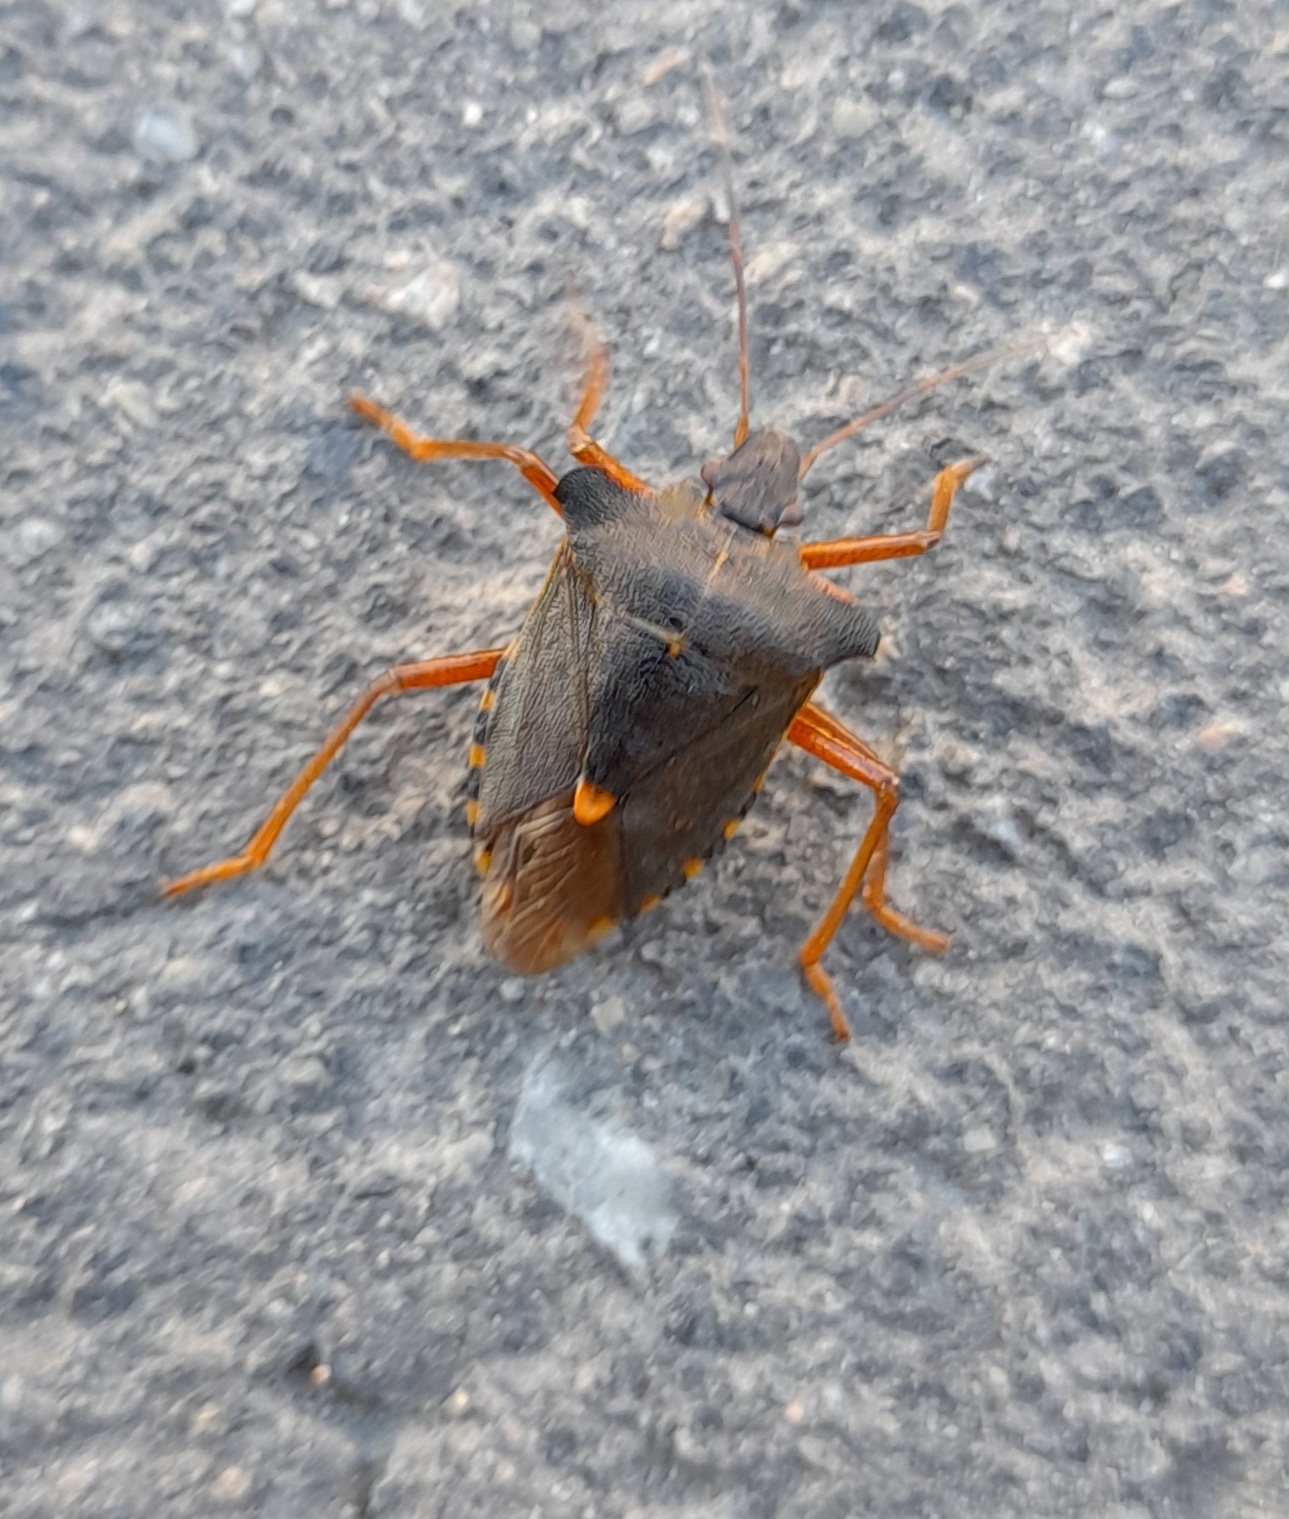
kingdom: Animalia
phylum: Arthropoda
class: Insecta
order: Hemiptera
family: Pentatomidae
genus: Pentatoma
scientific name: Pentatoma rufipes
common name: Forest bug
